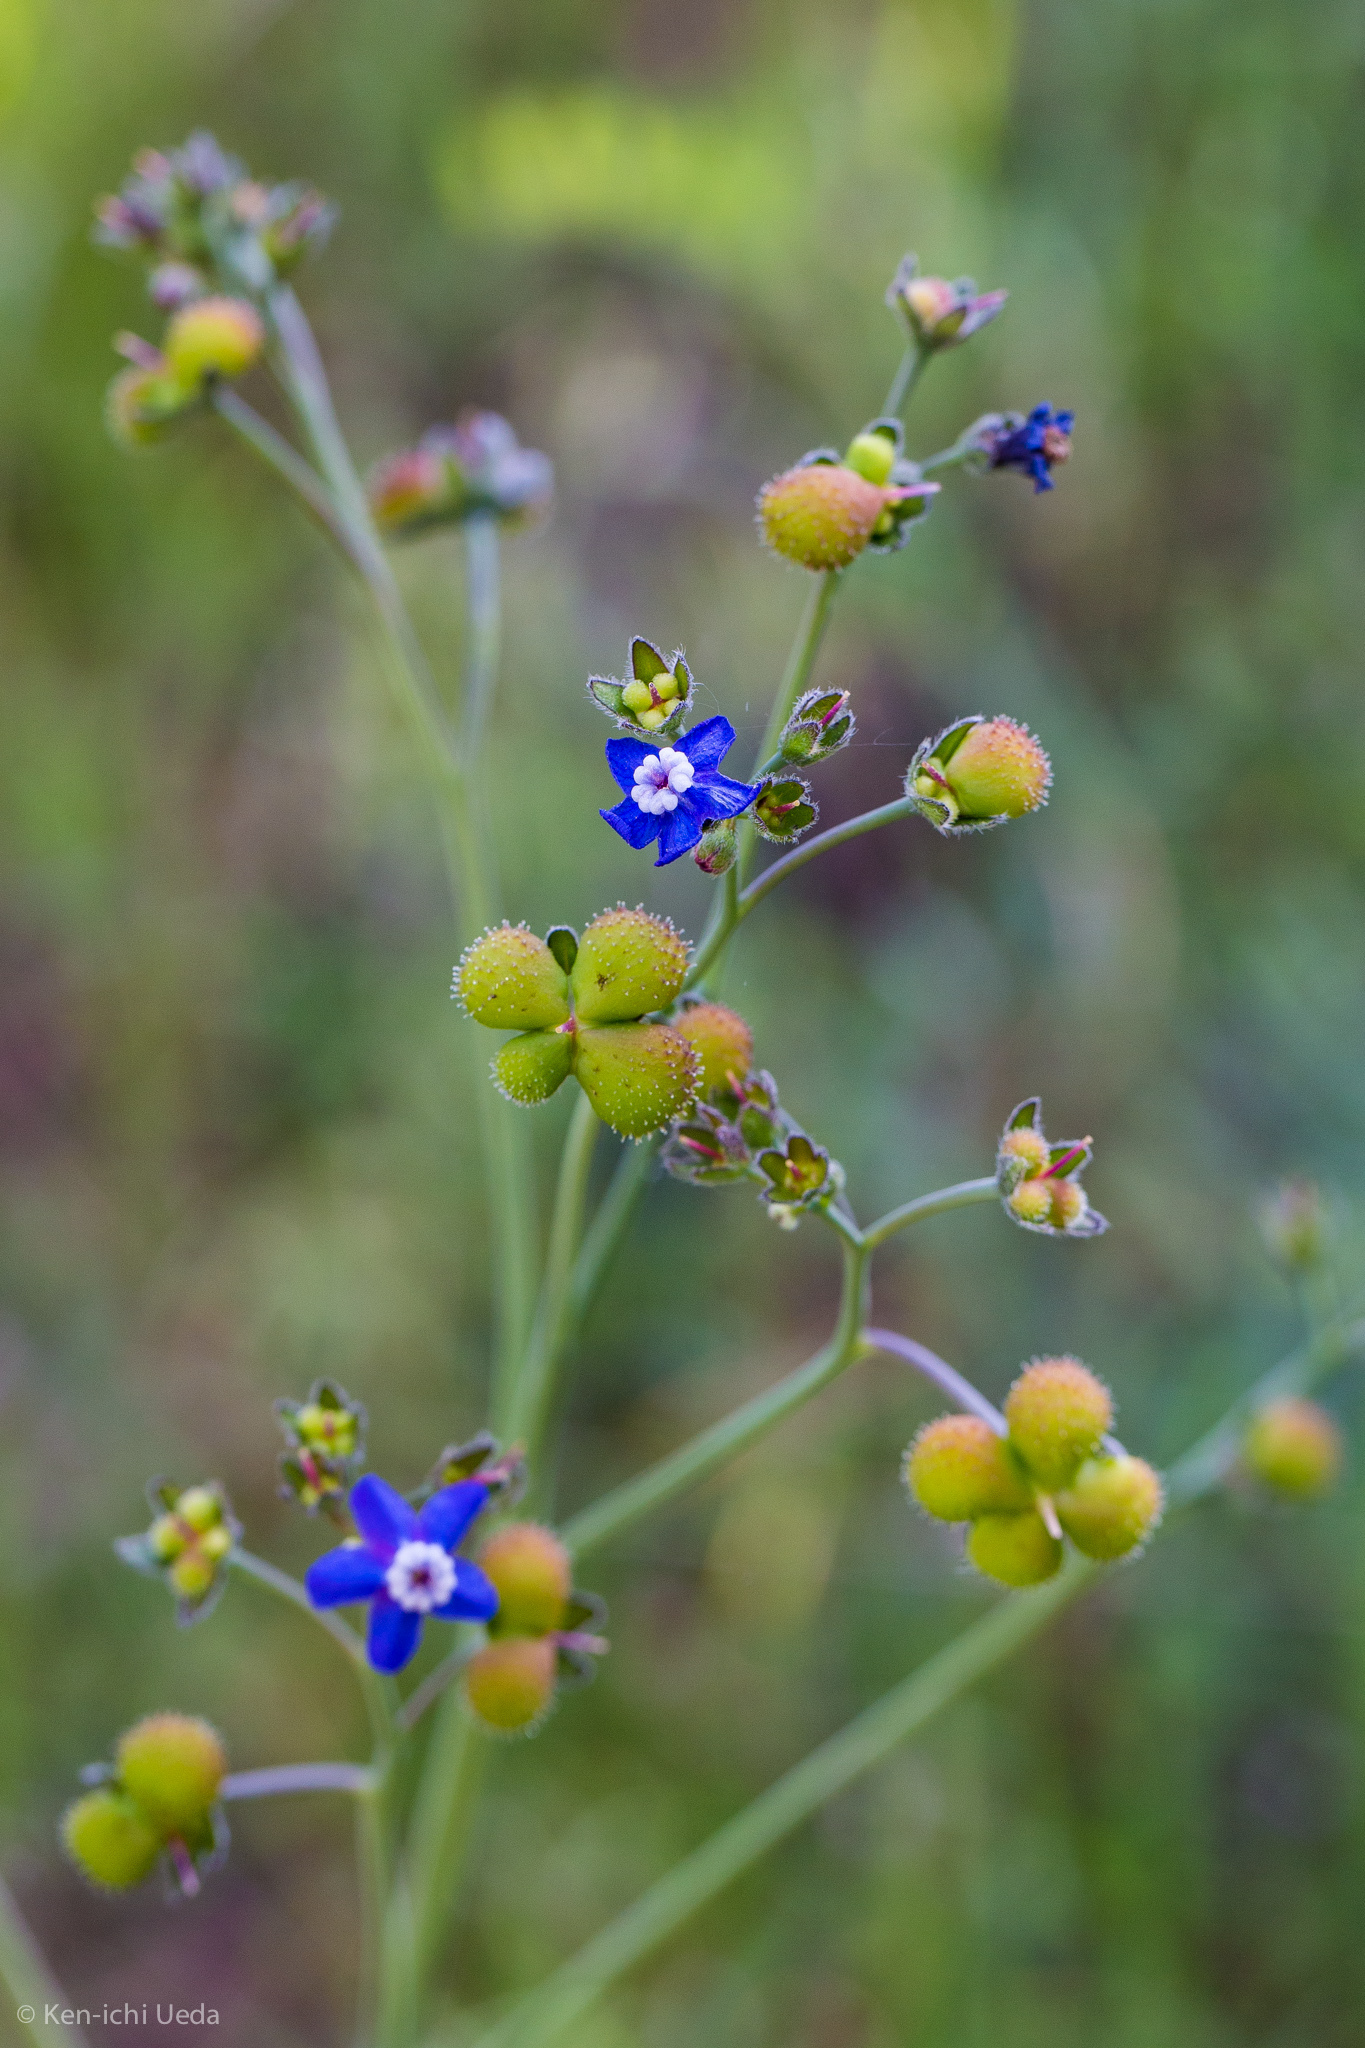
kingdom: Plantae
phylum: Tracheophyta
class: Magnoliopsida
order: Boraginales
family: Boraginaceae
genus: Adelinia
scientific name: Adelinia grande
